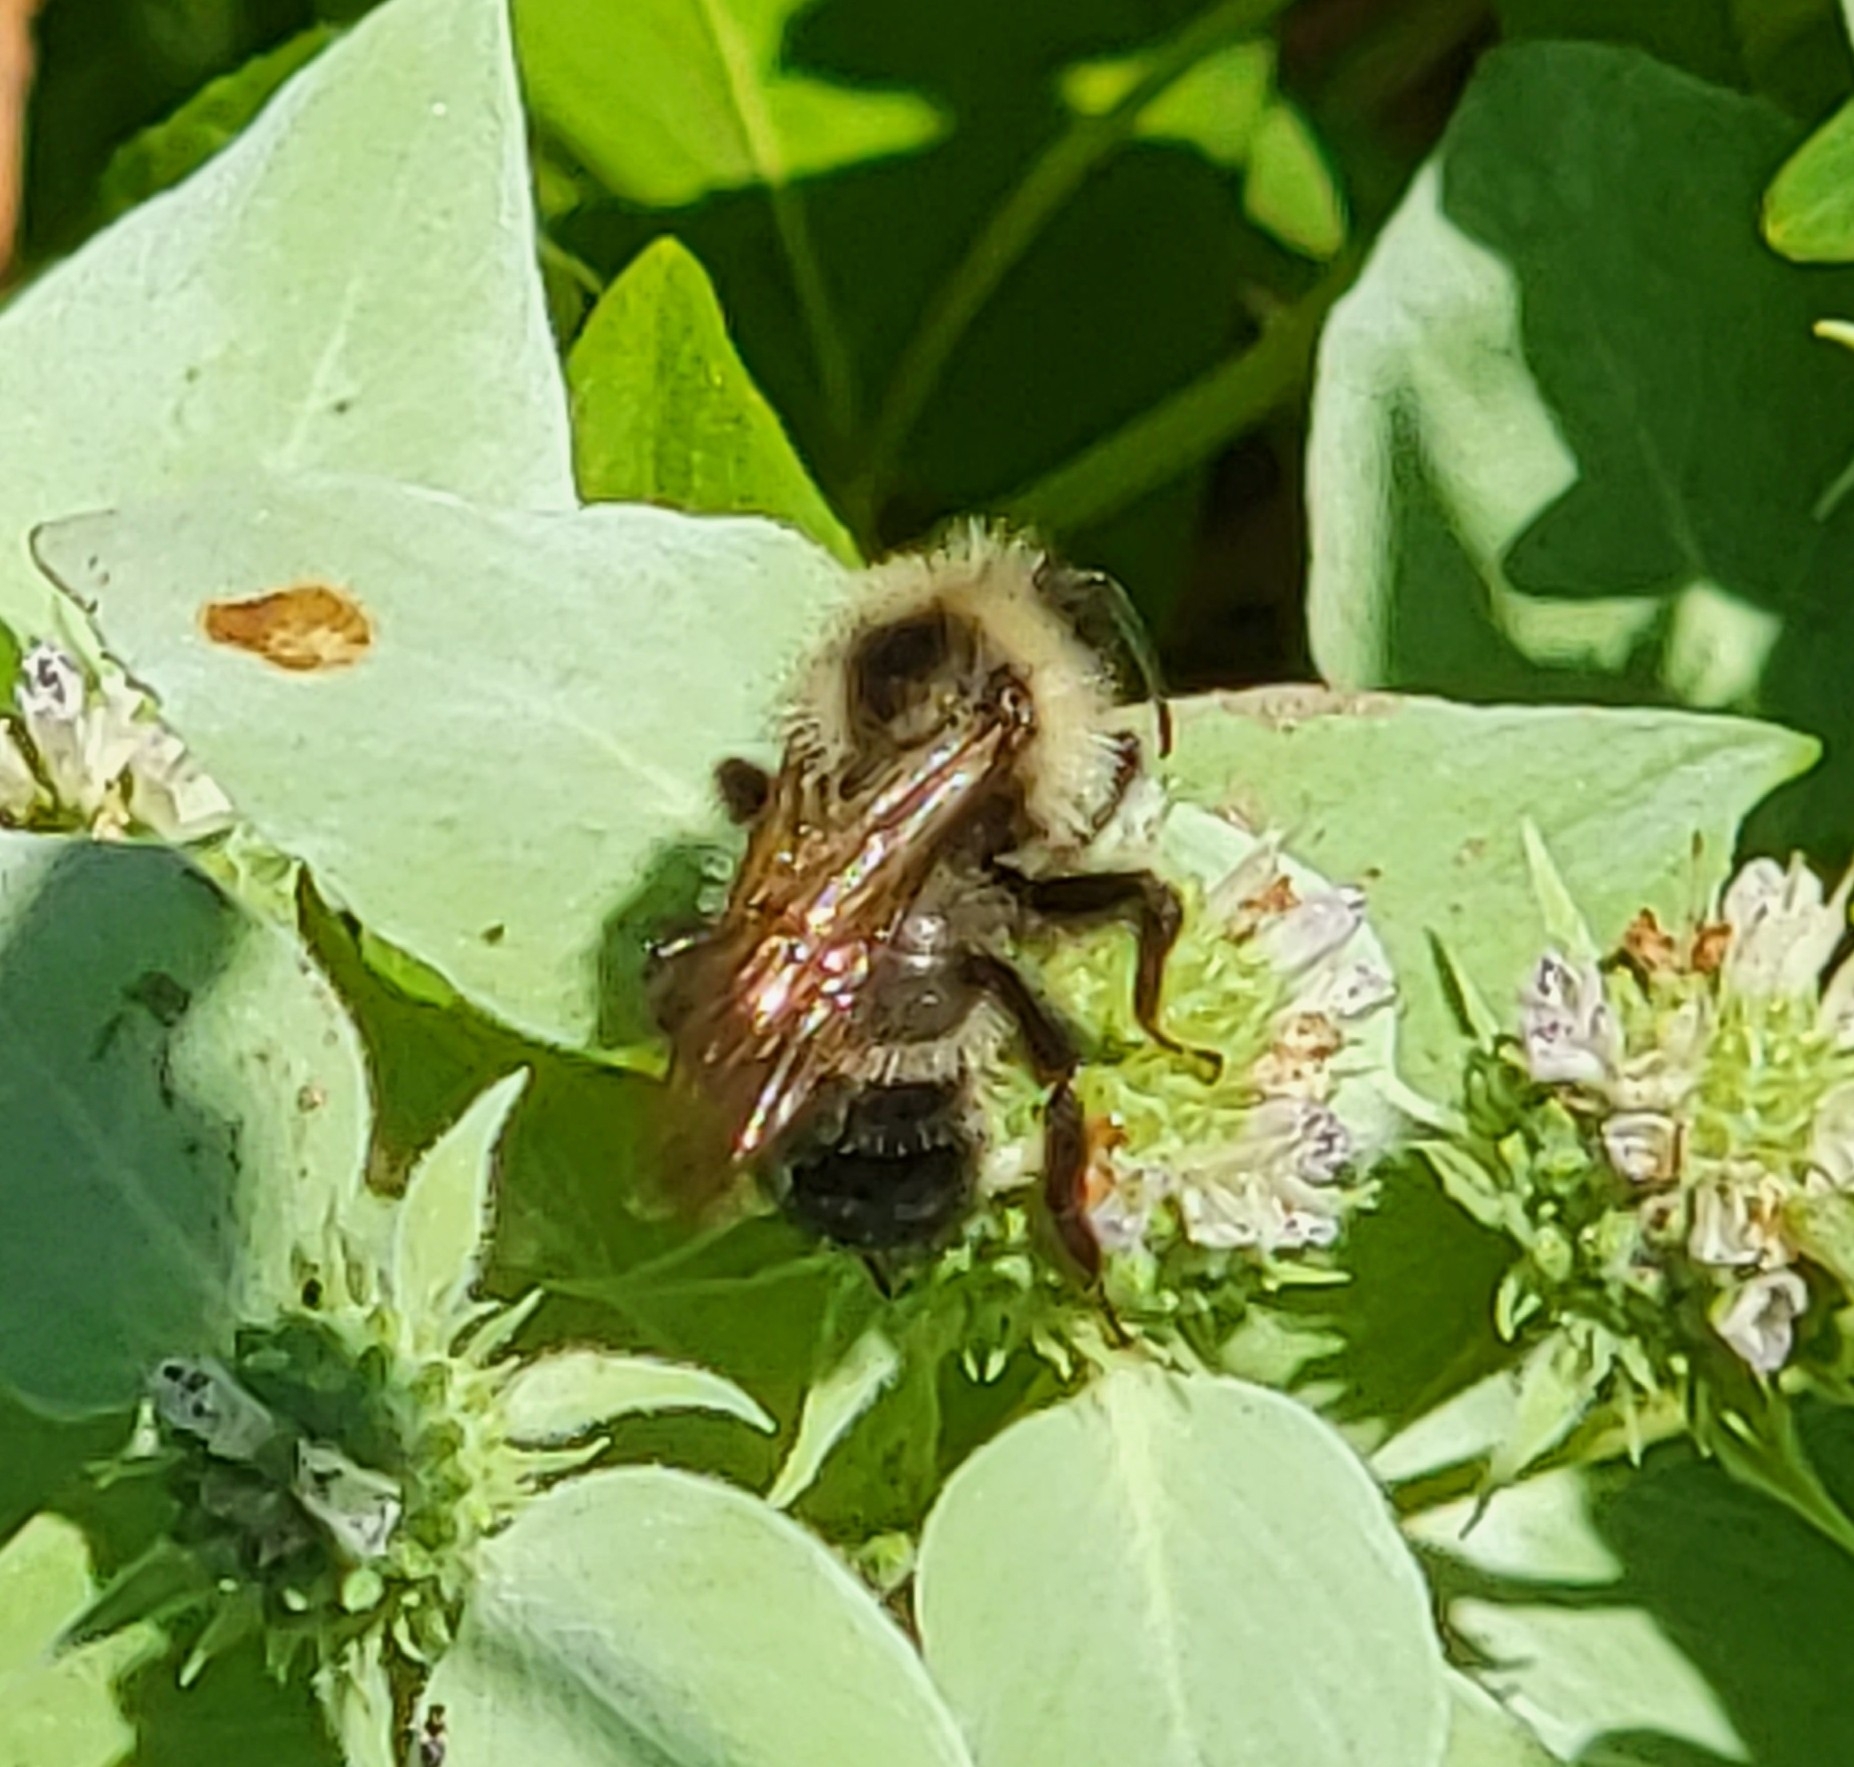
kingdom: Animalia
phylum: Arthropoda
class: Insecta
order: Hymenoptera
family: Apidae
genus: Bombus
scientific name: Bombus citrinus
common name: Lemon cuckoo bumble bee
